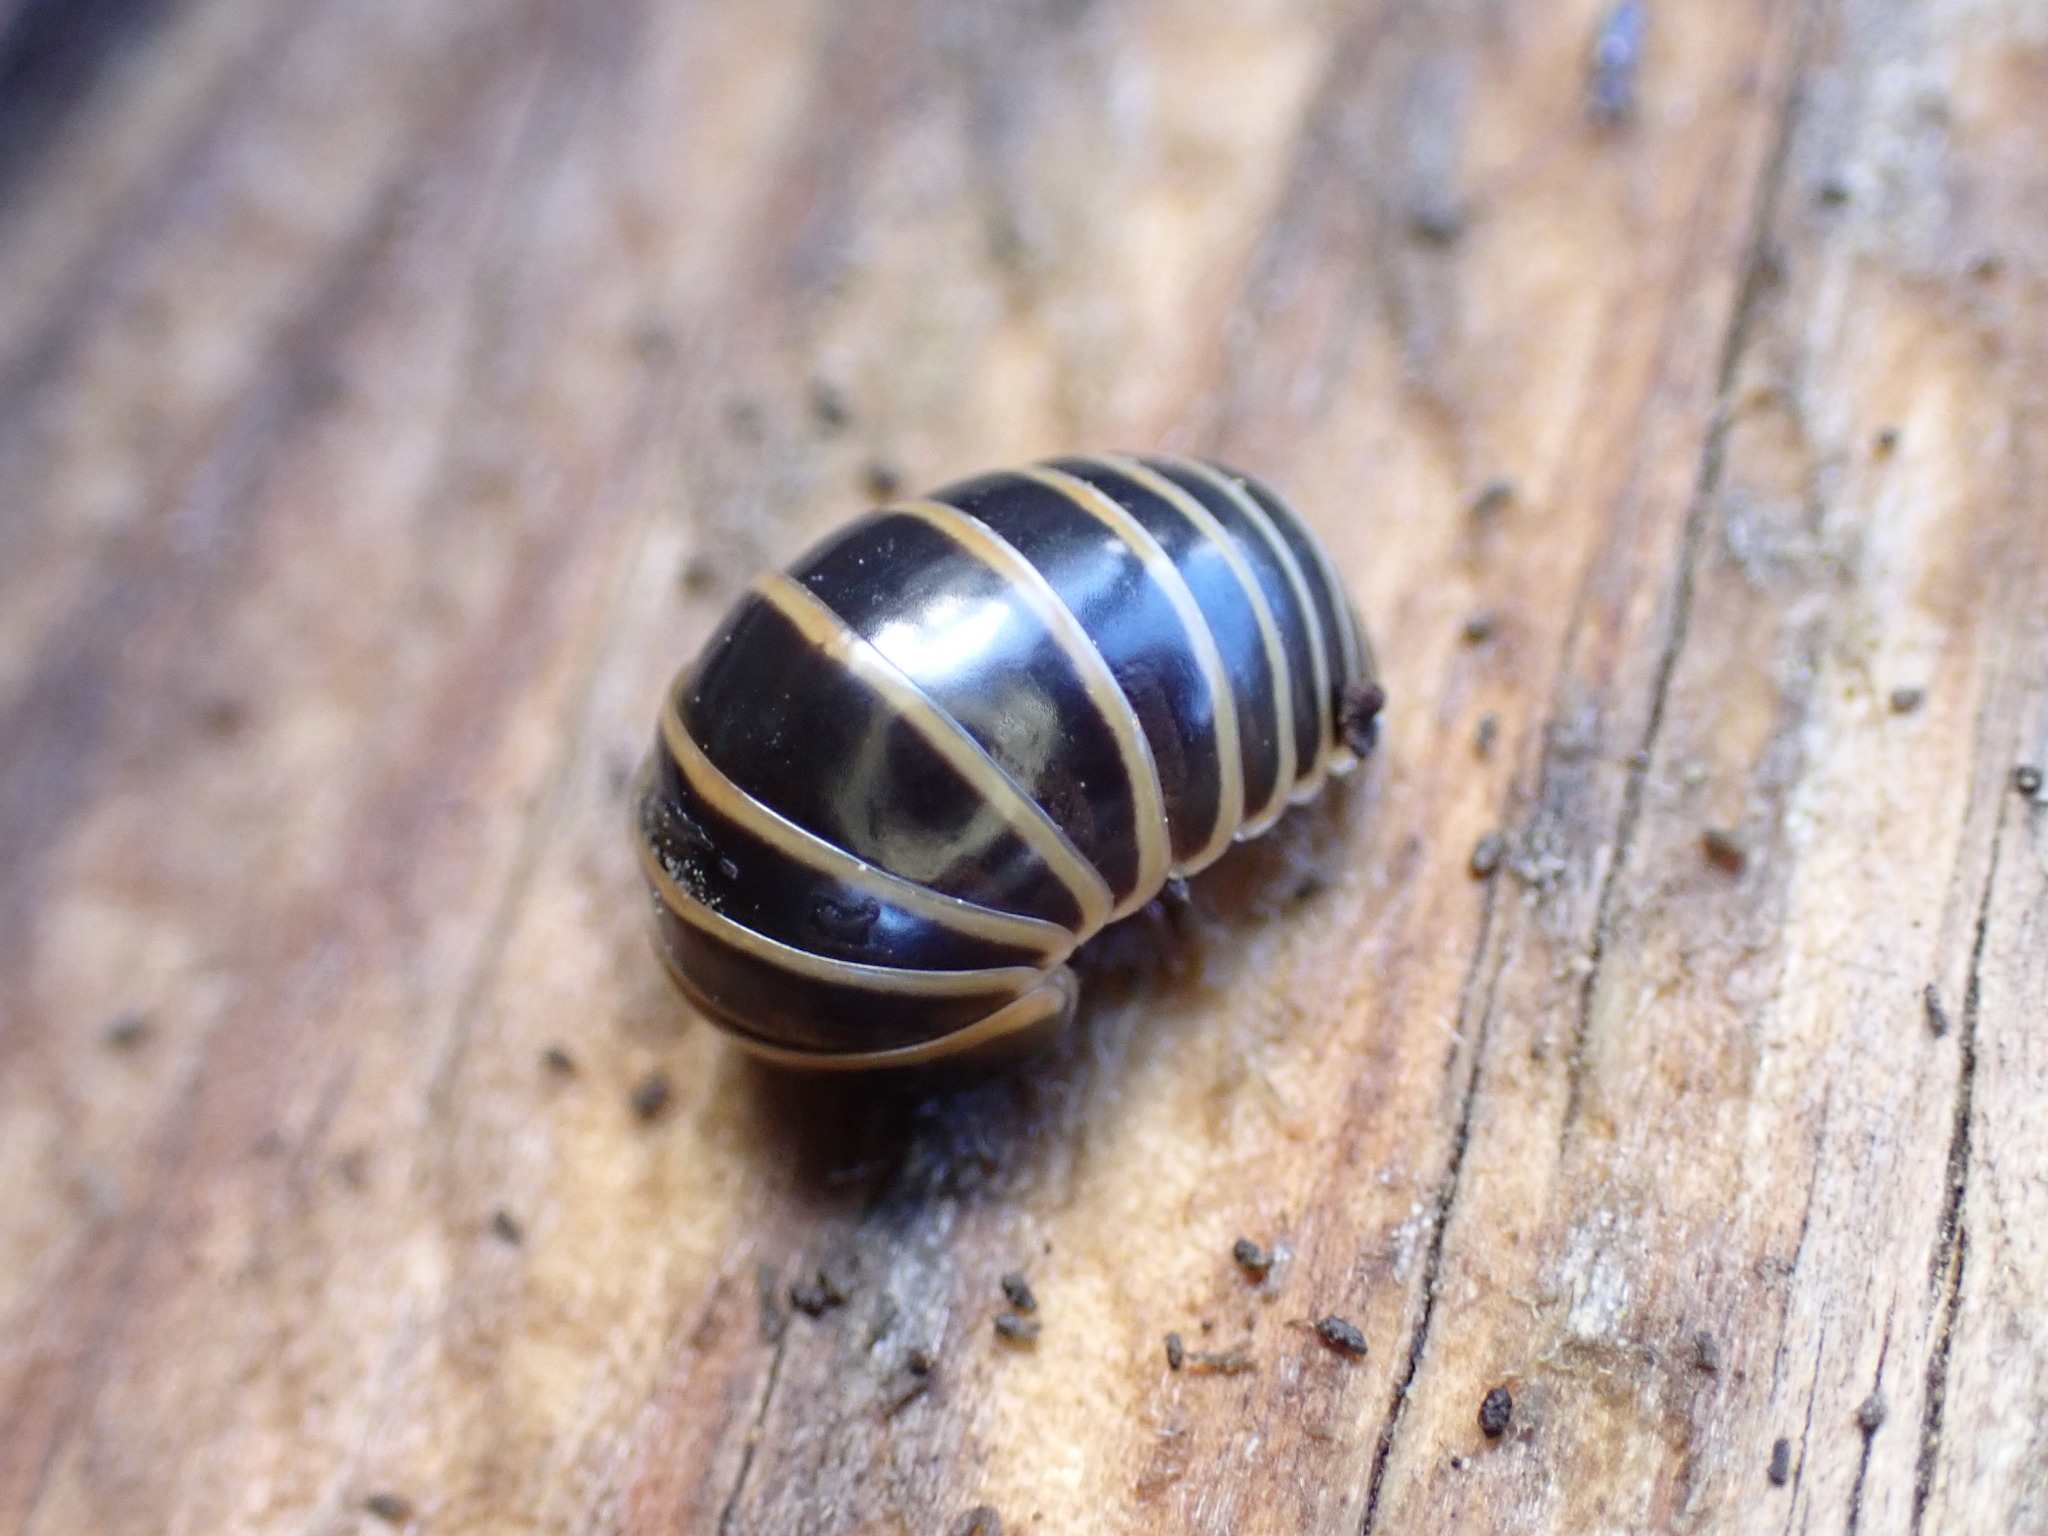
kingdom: Animalia
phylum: Arthropoda
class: Diplopoda
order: Glomerida
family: Glomeridae
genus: Glomeris
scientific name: Glomeris marginata
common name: Bordered pill millipede
